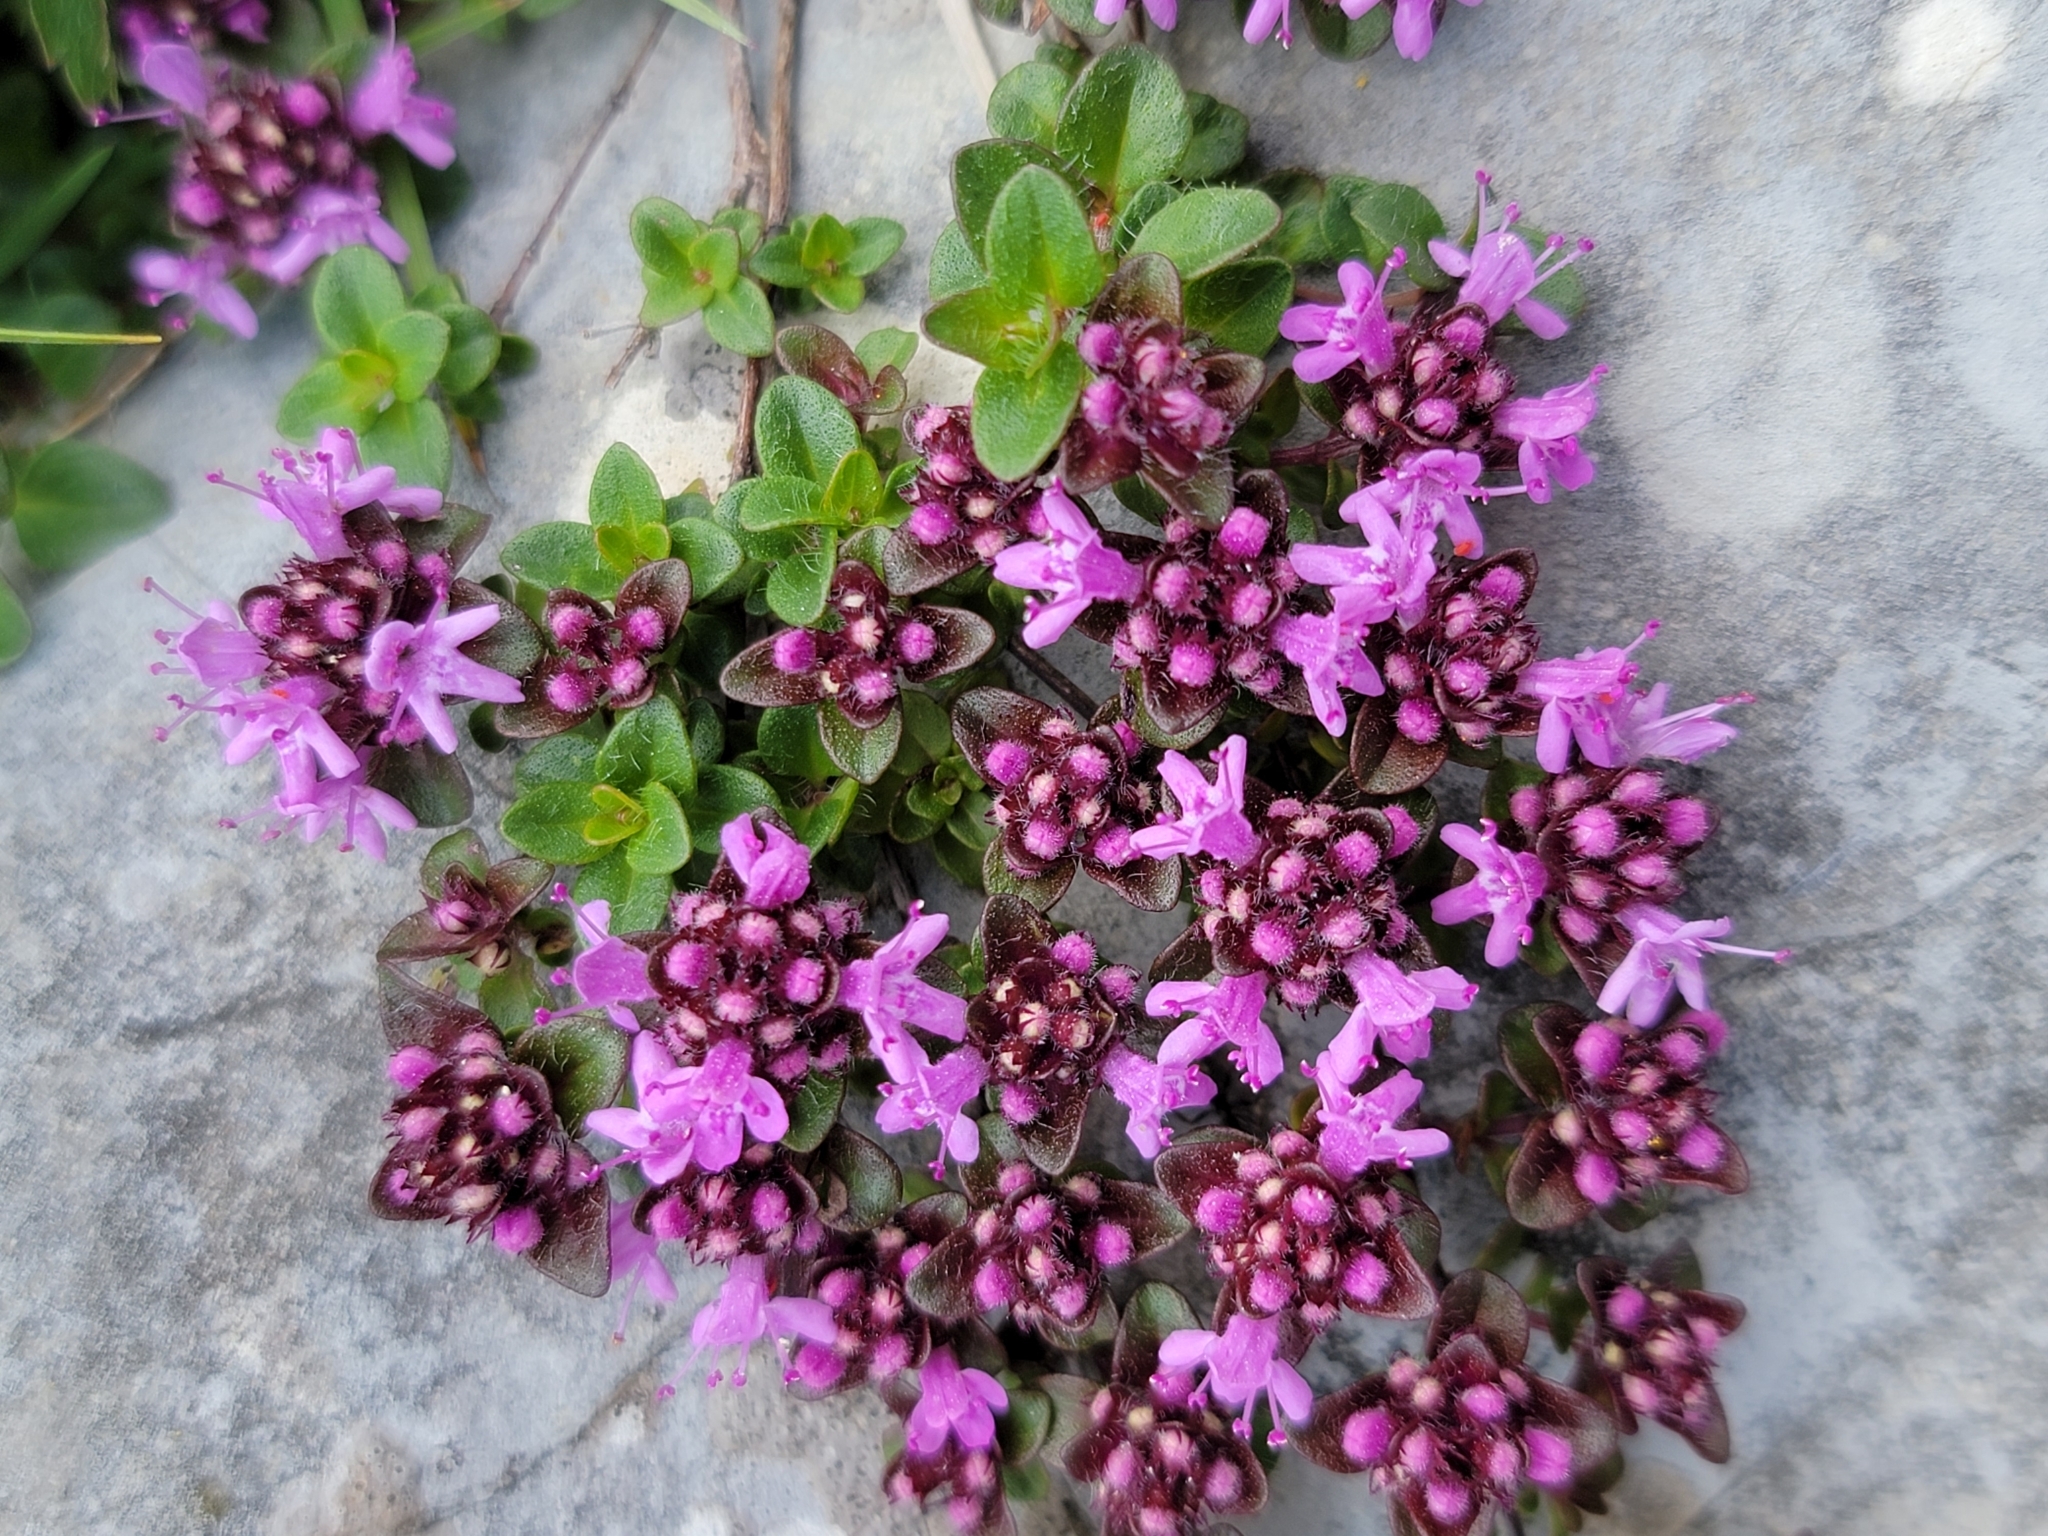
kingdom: Plantae
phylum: Tracheophyta
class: Magnoliopsida
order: Lamiales
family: Lamiaceae
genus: Thymus
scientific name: Thymus praecox
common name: Wild thyme
